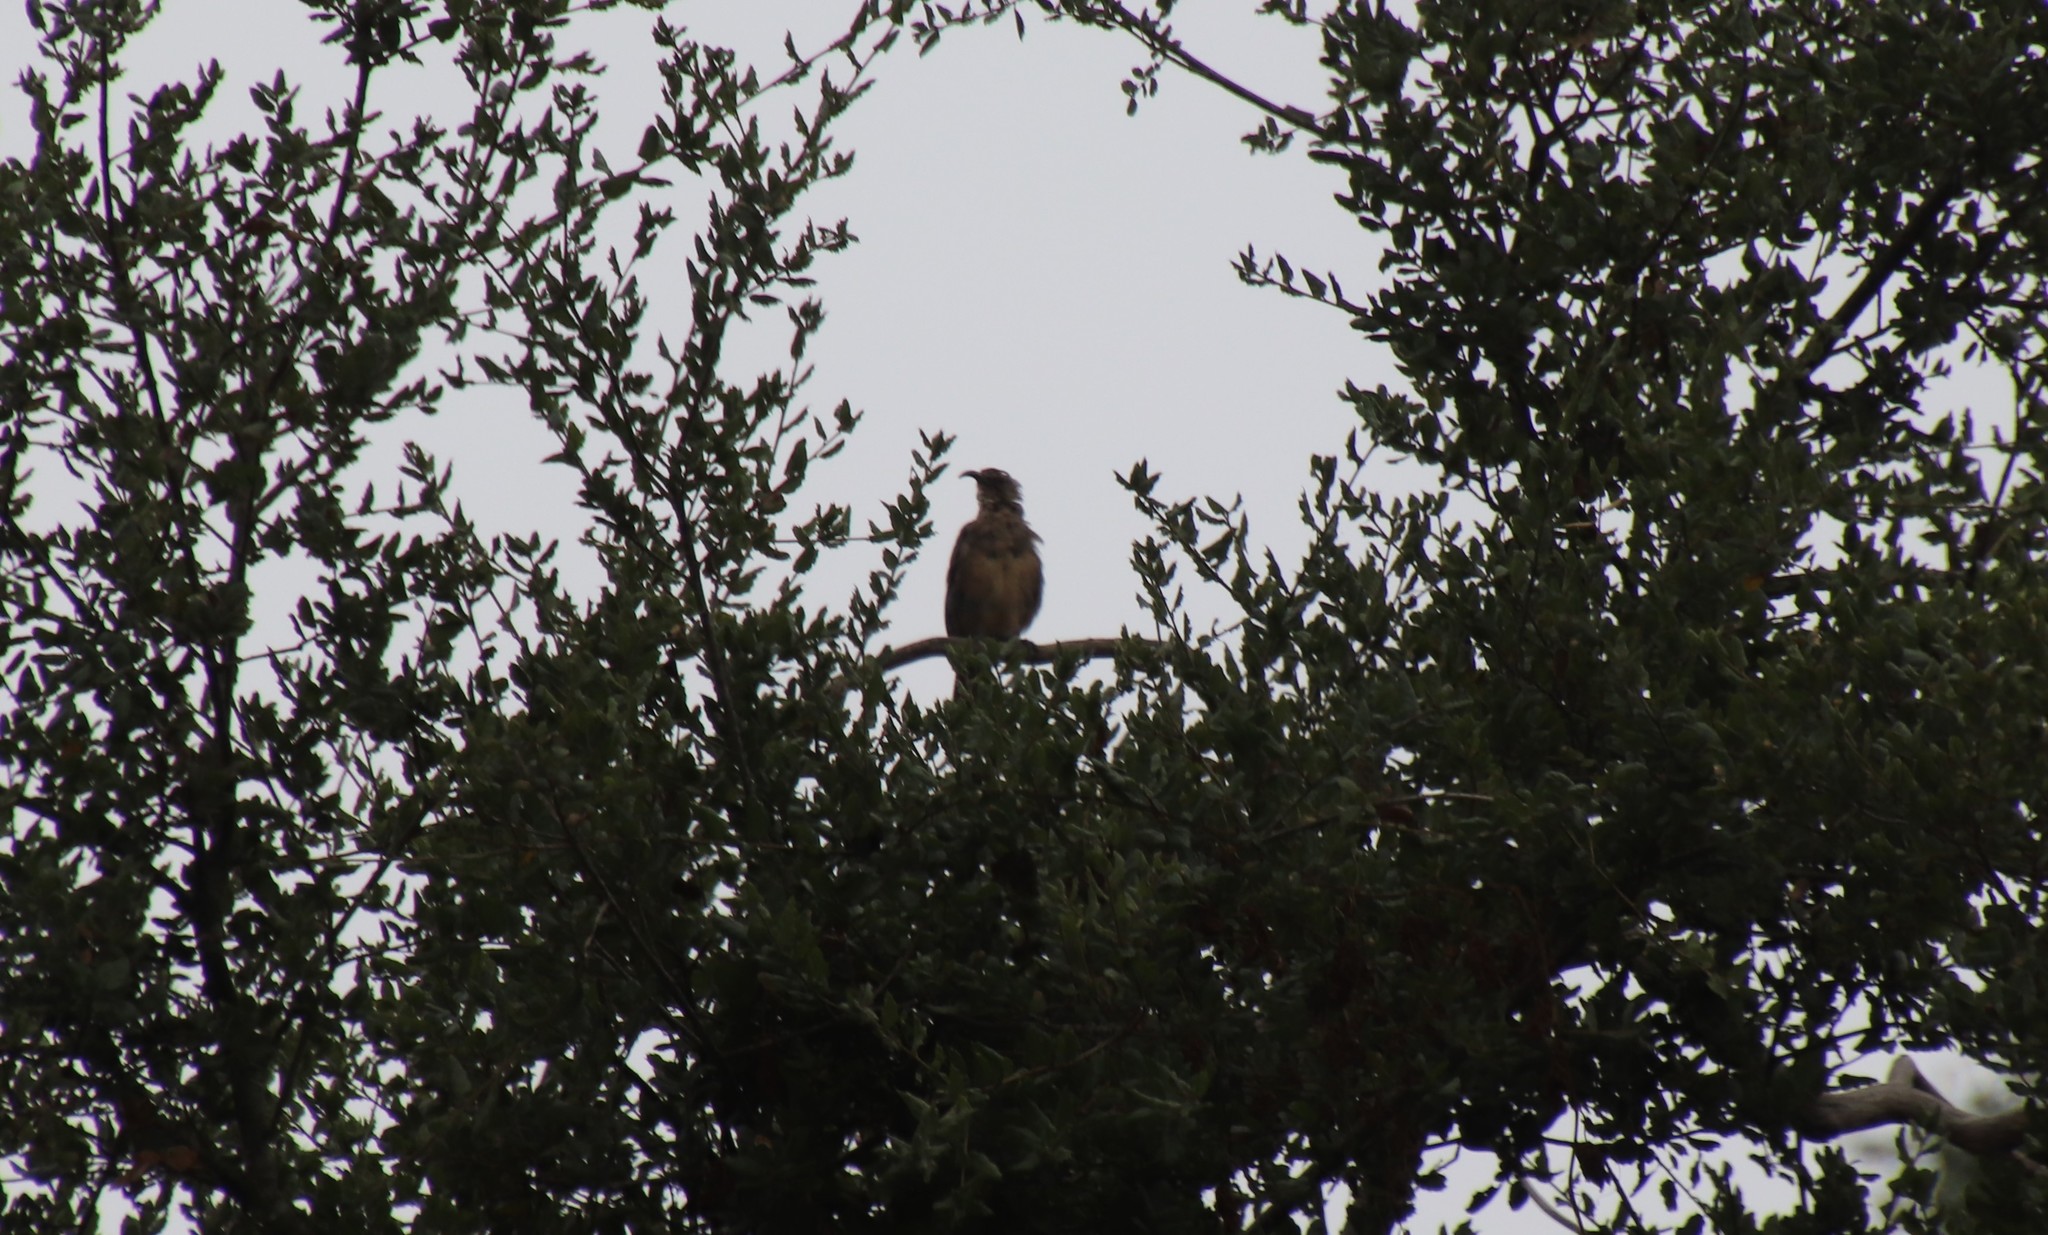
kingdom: Animalia
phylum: Chordata
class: Aves
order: Passeriformes
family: Mimidae
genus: Toxostoma
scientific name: Toxostoma redivivum
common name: California thrasher
